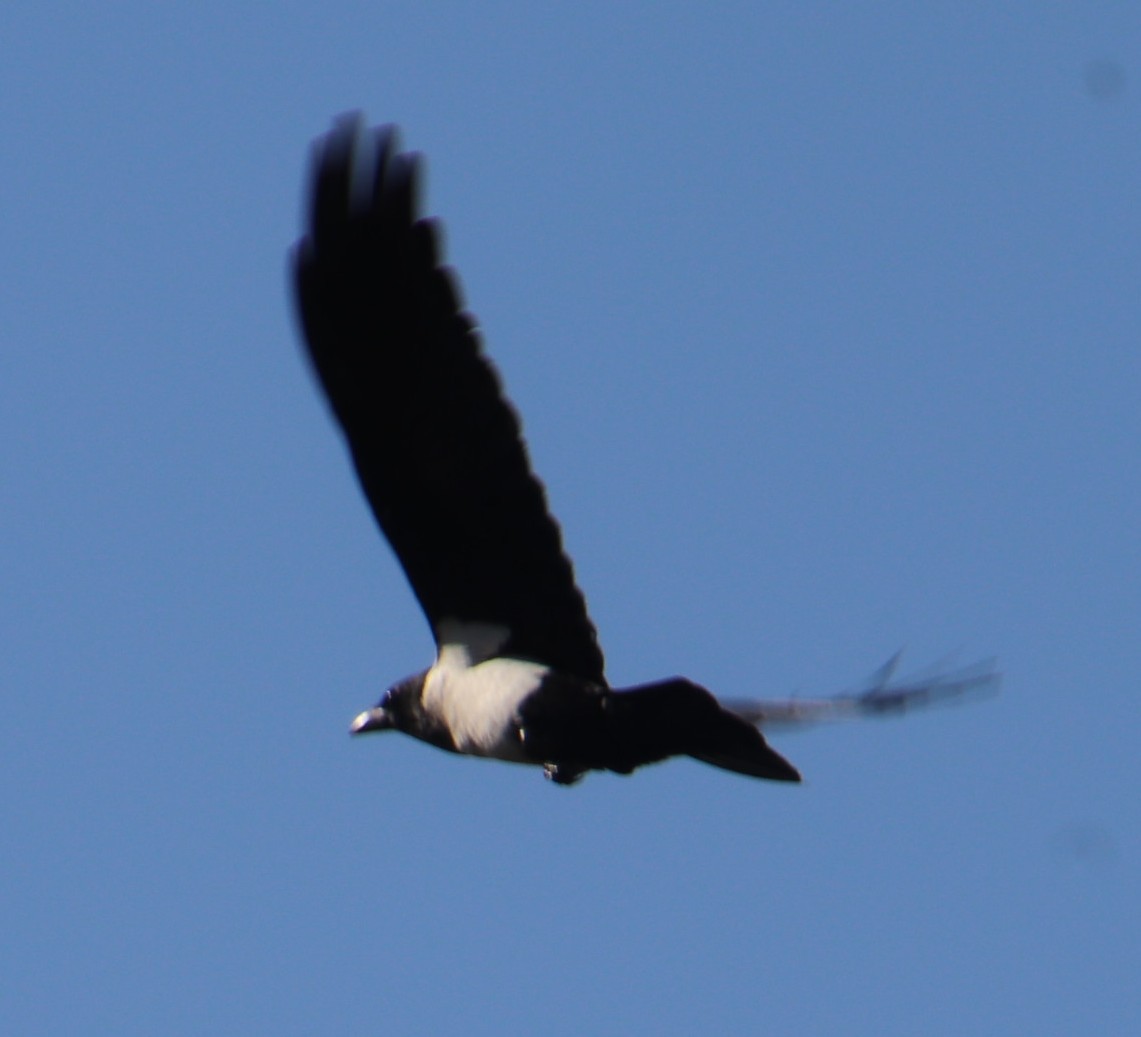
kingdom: Animalia
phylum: Chordata
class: Aves
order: Passeriformes
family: Corvidae
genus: Corvus
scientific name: Corvus albus
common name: Pied crow
